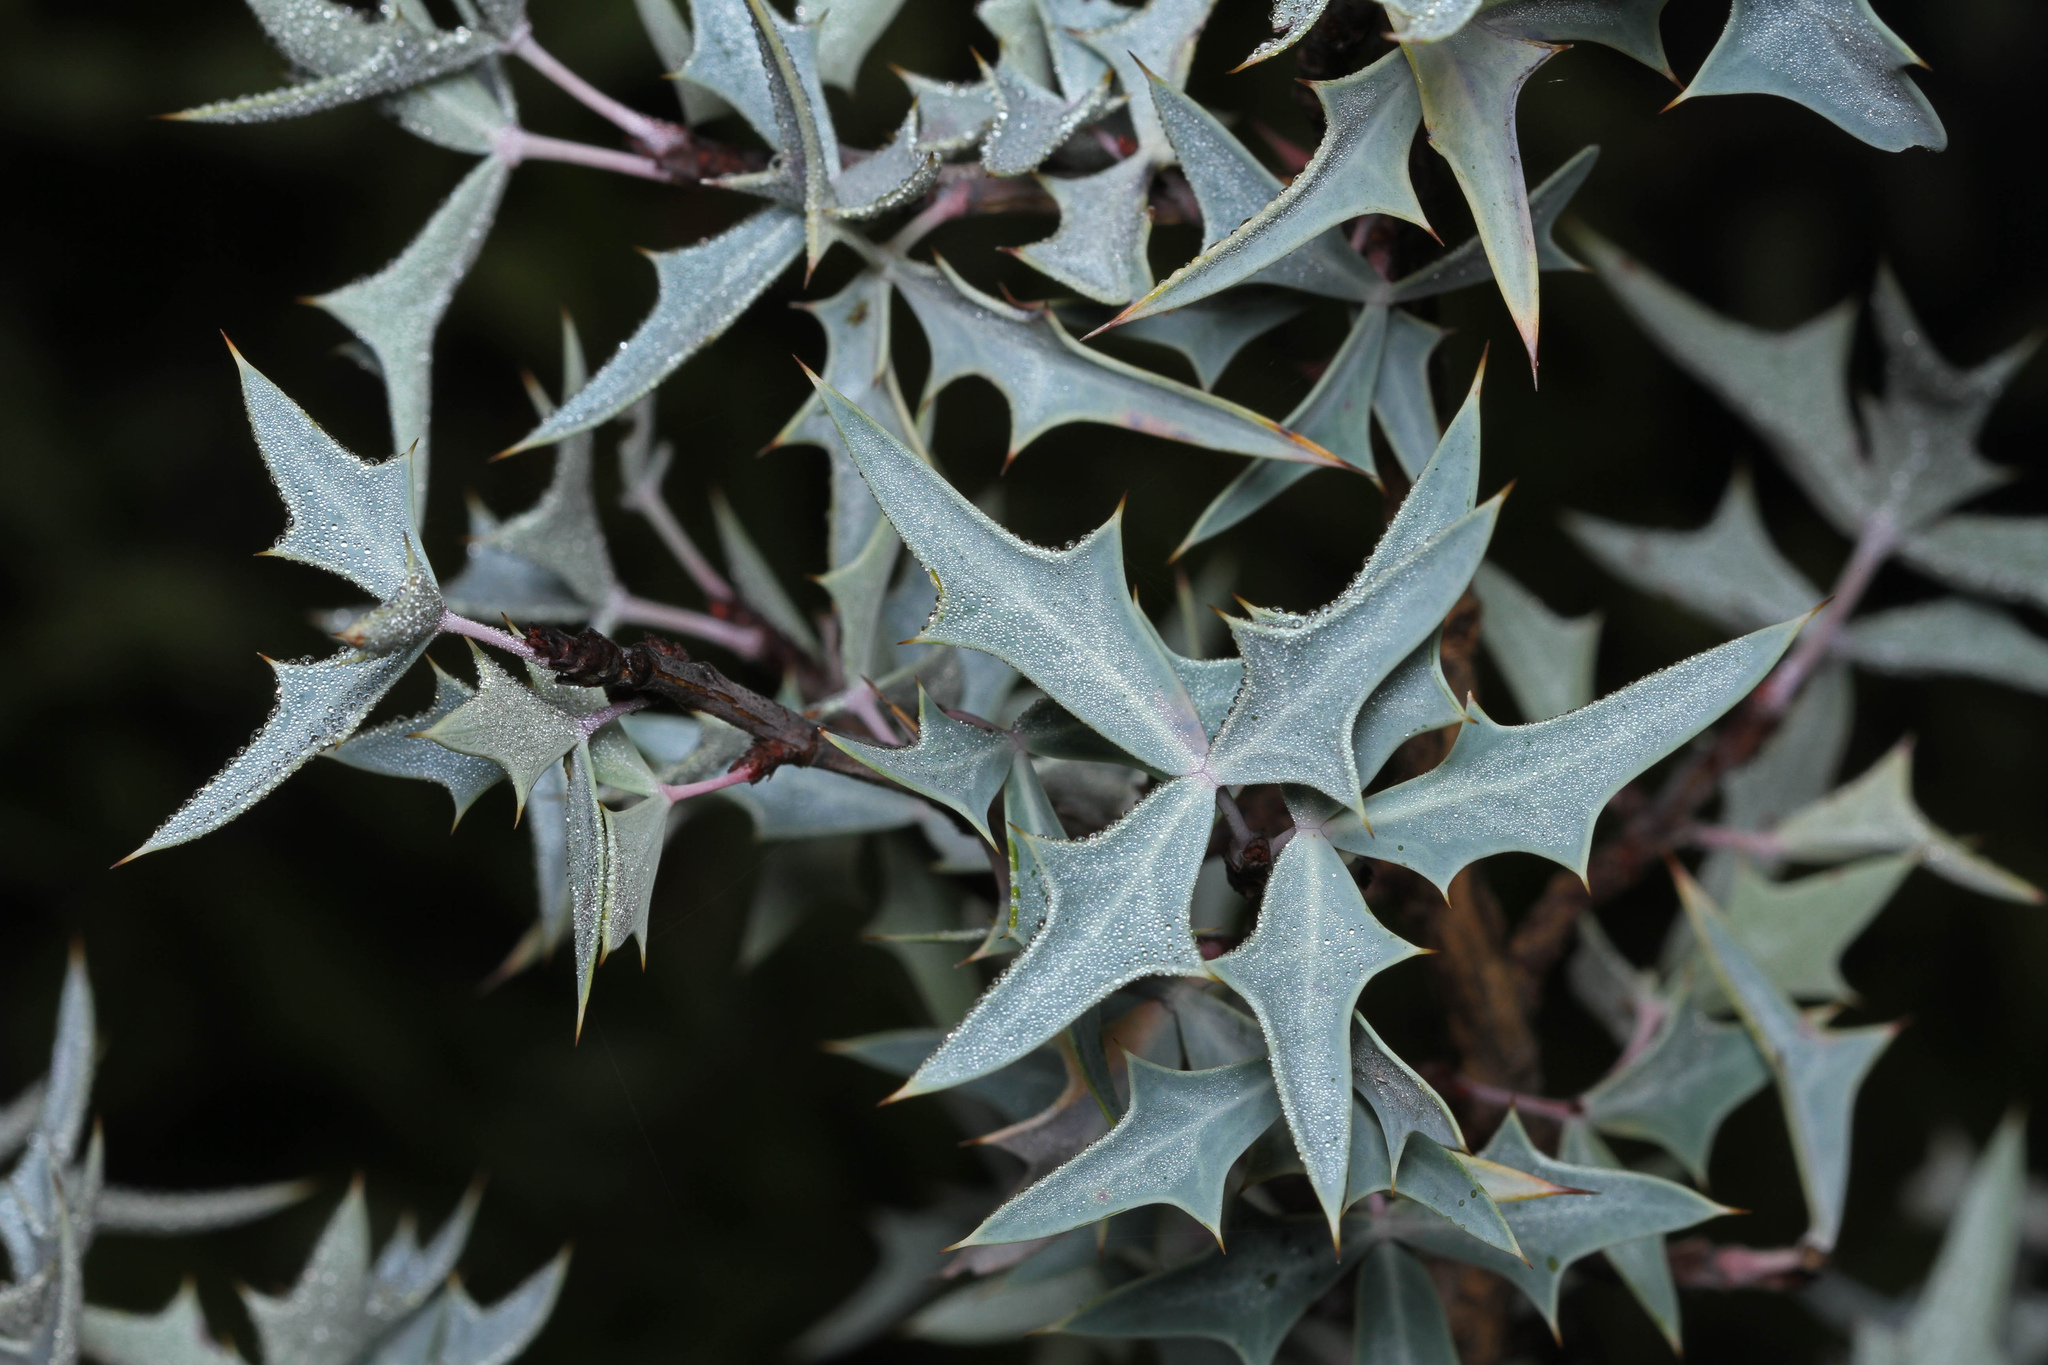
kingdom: Plantae
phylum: Tracheophyta
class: Magnoliopsida
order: Ranunculales
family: Berberidaceae
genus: Alloberberis
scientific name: Alloberberis trifoliolata
